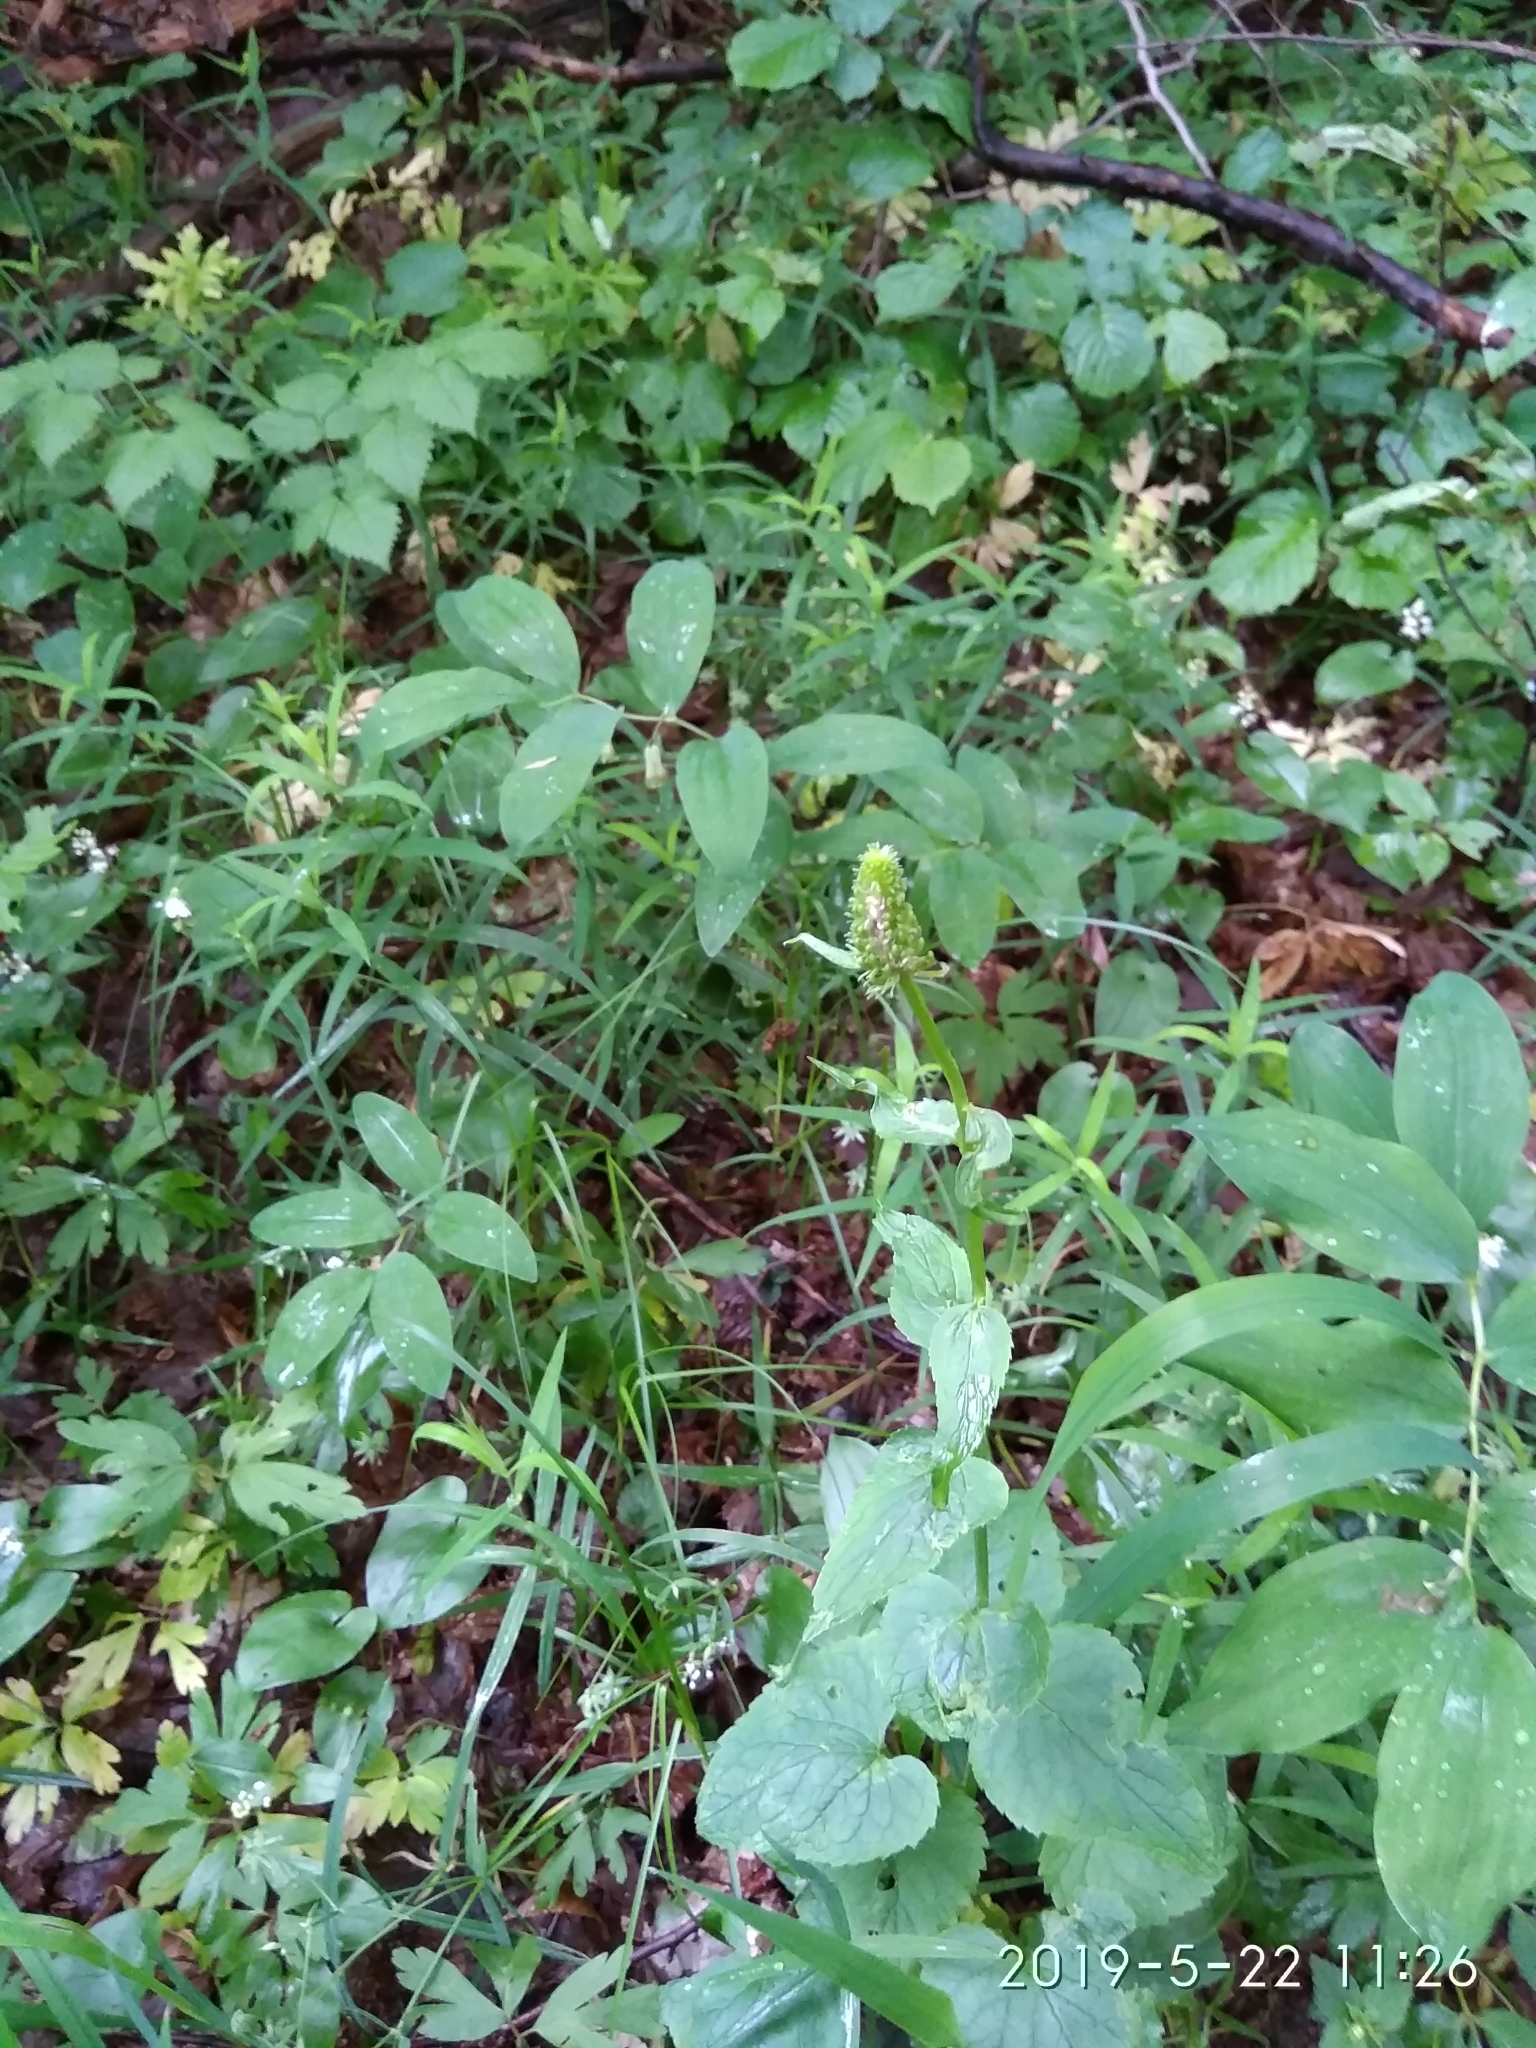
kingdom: Plantae
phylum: Tracheophyta
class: Magnoliopsida
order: Asterales
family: Campanulaceae
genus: Phyteuma
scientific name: Phyteuma spicatum
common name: Spiked rampion
